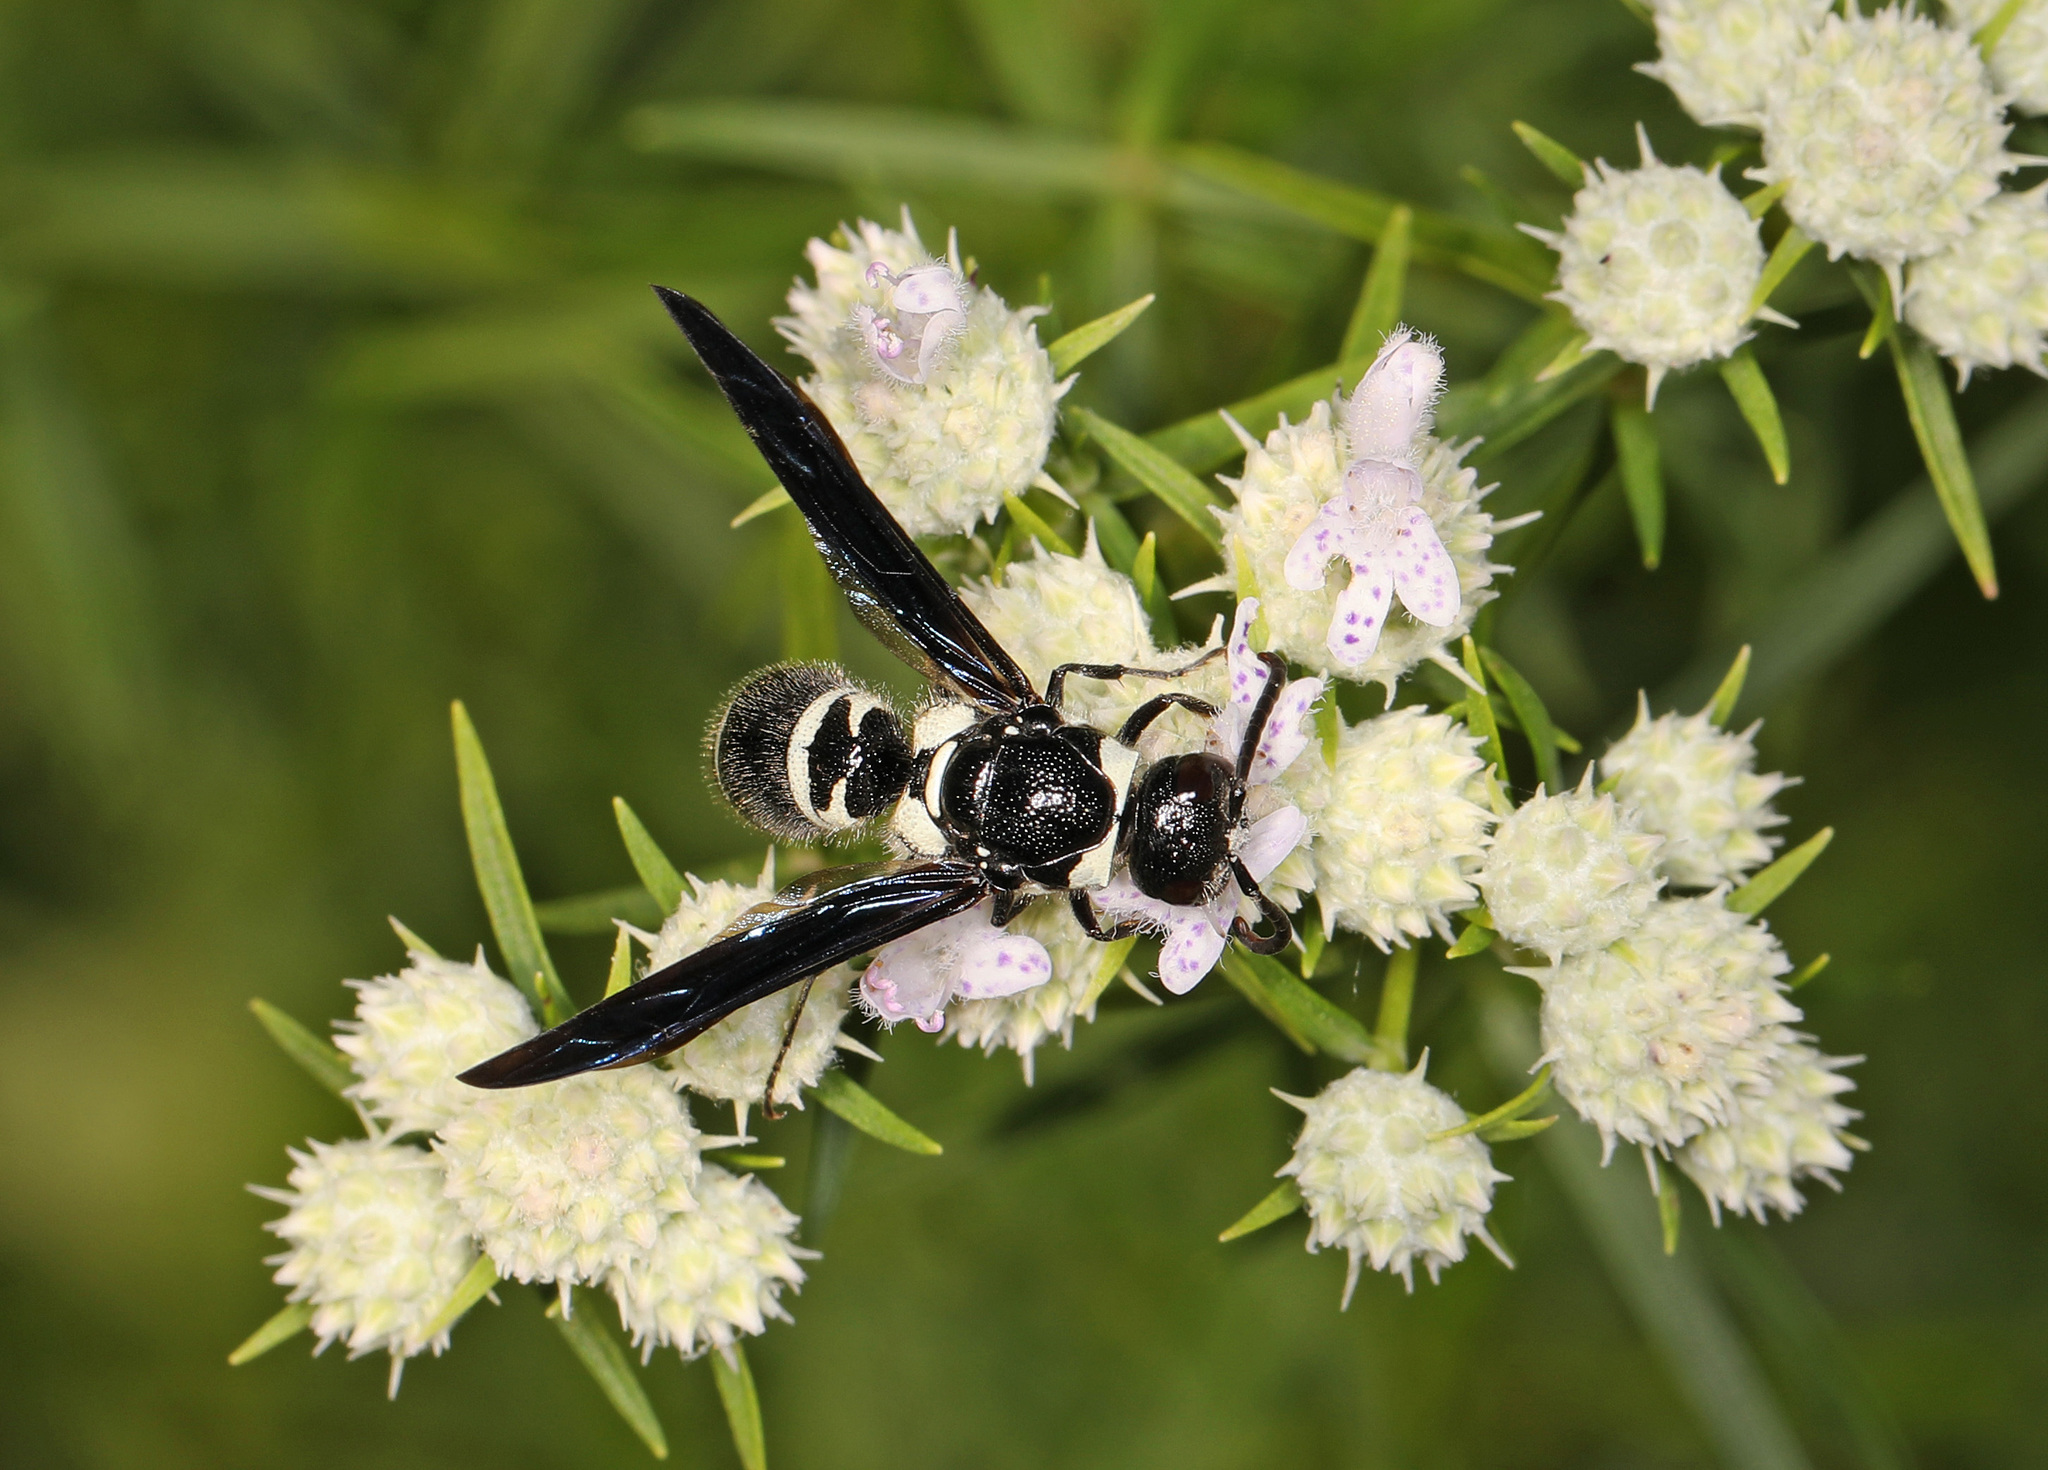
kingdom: Animalia
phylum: Arthropoda
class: Insecta
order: Hymenoptera
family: Eumenidae
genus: Pseudodynerus
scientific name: Pseudodynerus quadrisectus
